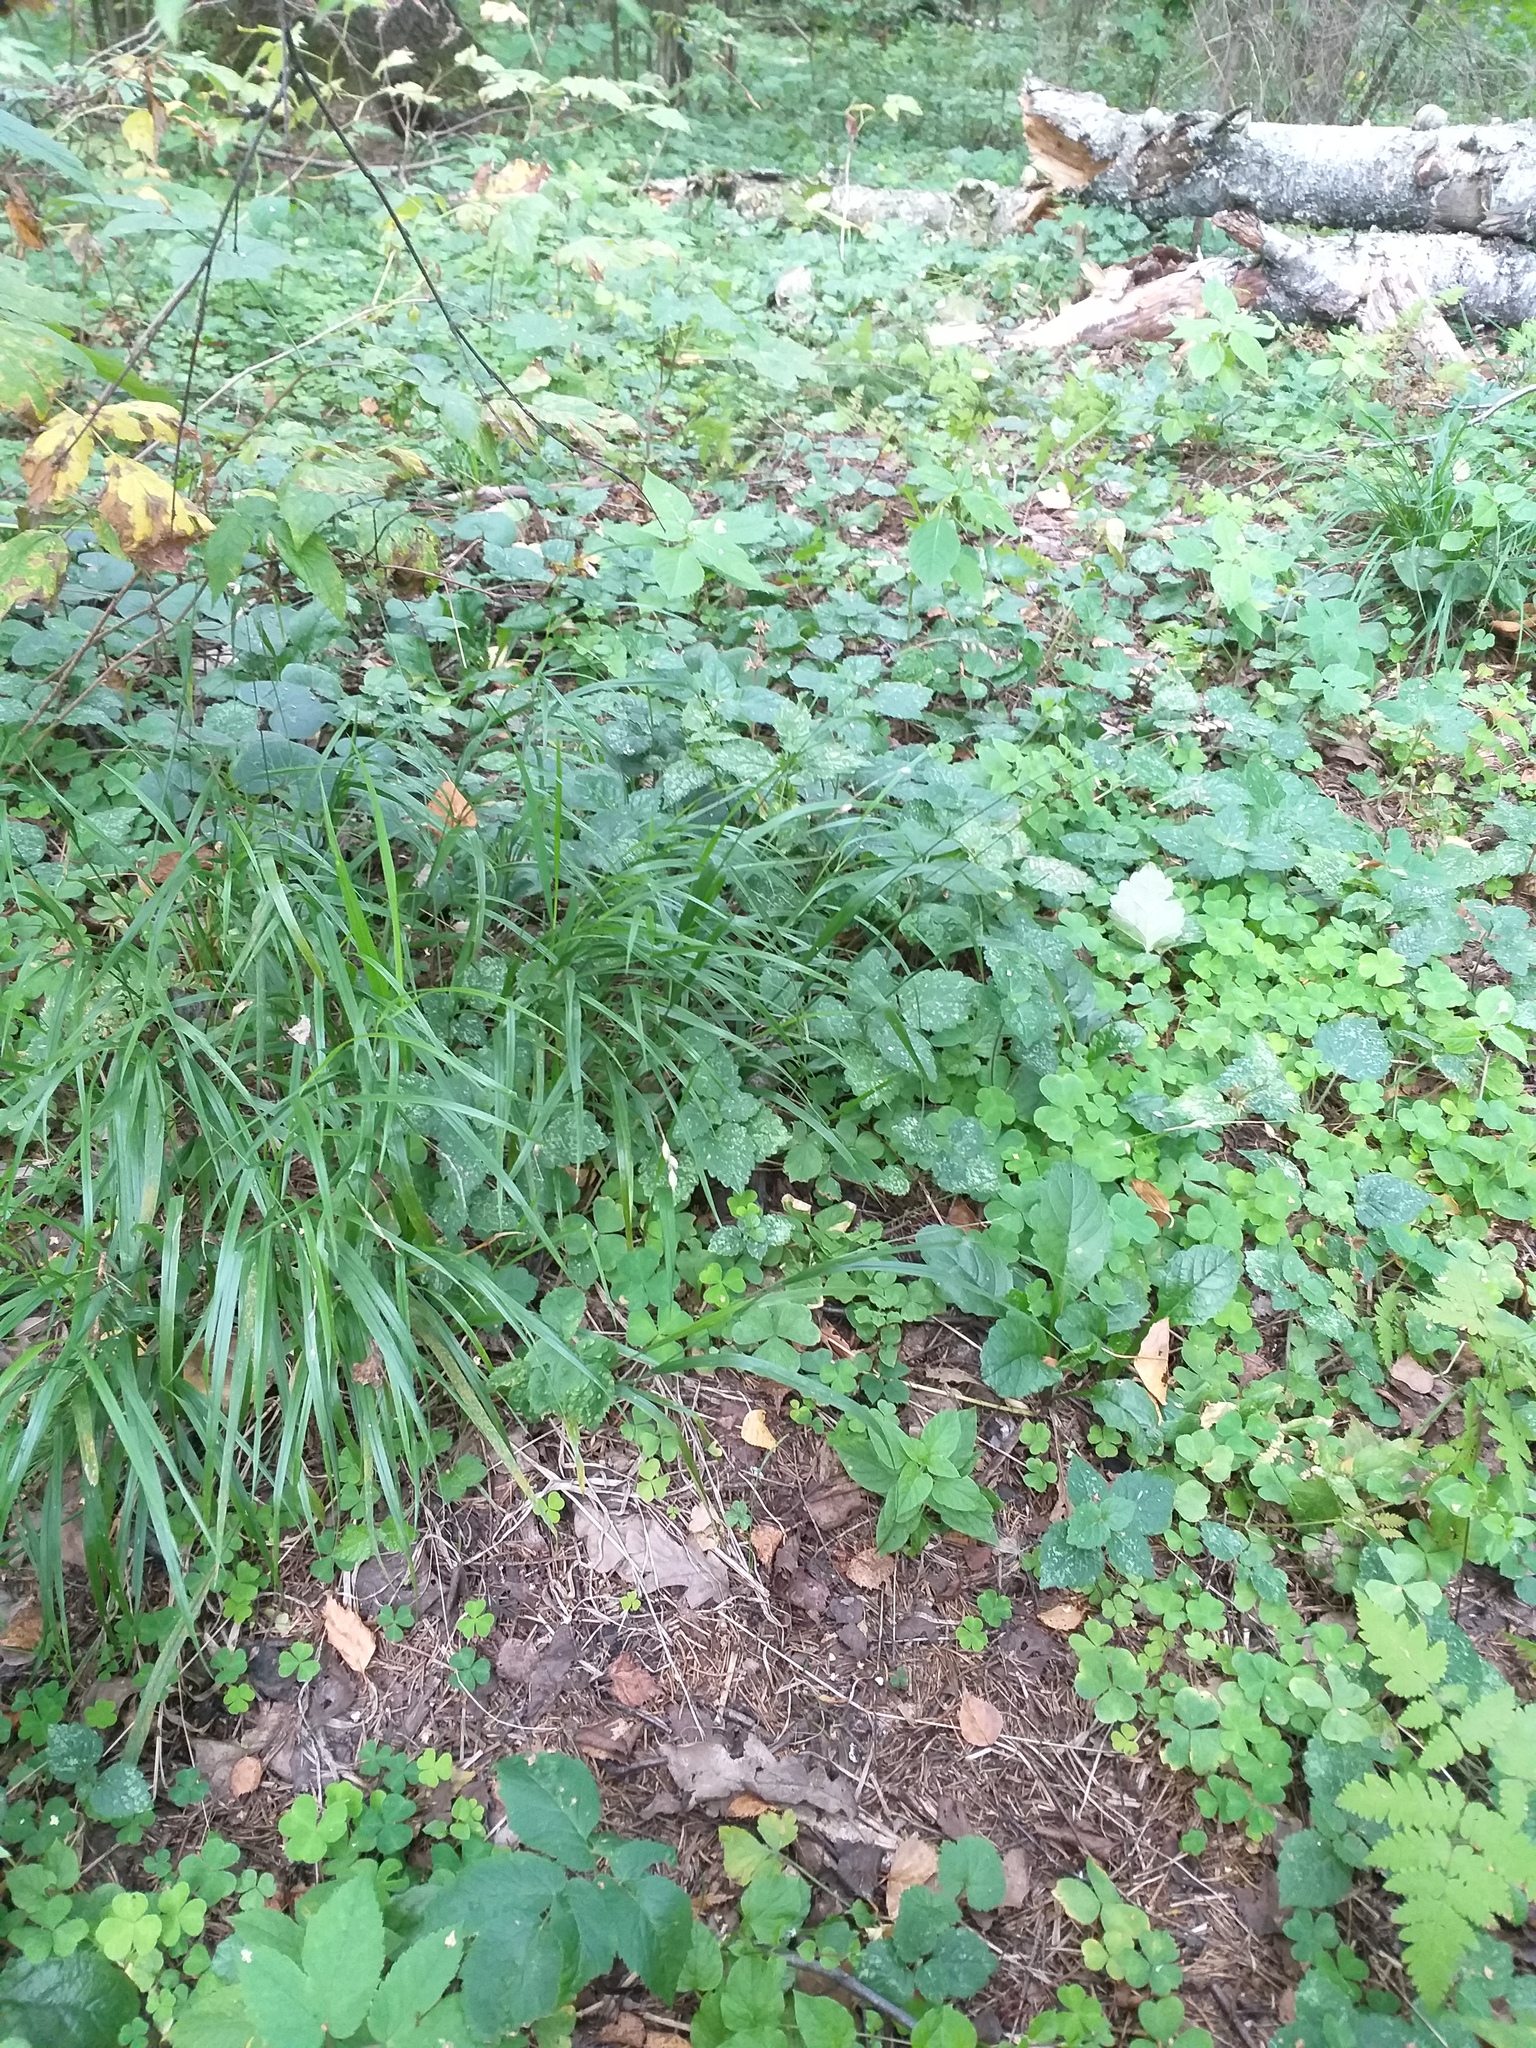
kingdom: Plantae
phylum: Tracheophyta
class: Liliopsida
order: Poales
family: Poaceae
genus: Melica
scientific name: Melica nutans
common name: Mountain melick
